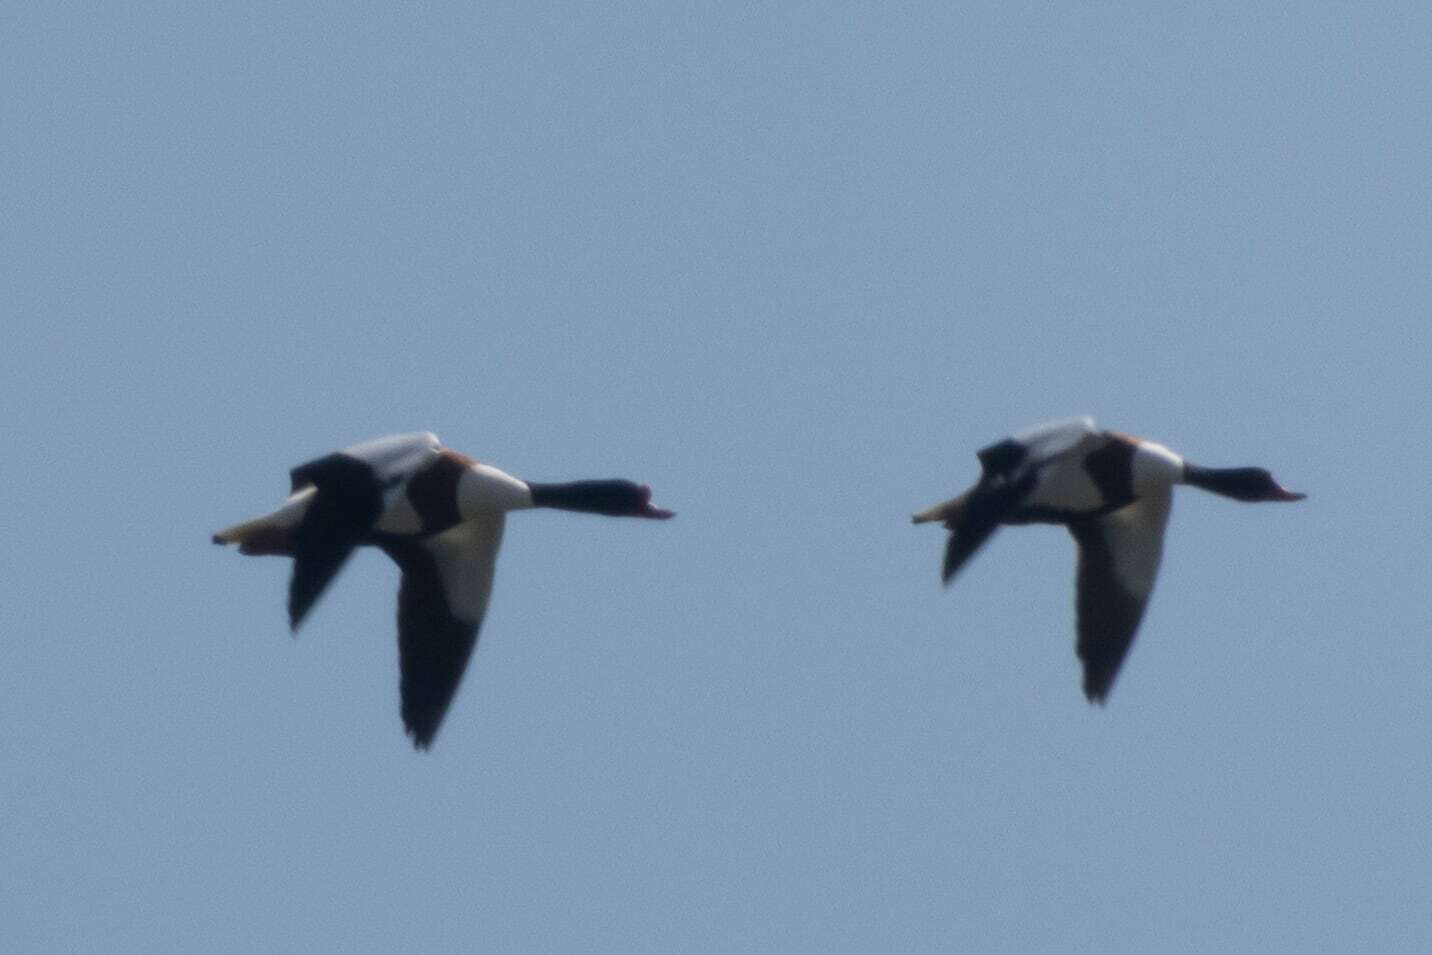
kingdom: Animalia
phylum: Chordata
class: Aves
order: Anseriformes
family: Anatidae
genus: Tadorna
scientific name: Tadorna tadorna
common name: Common shelduck
